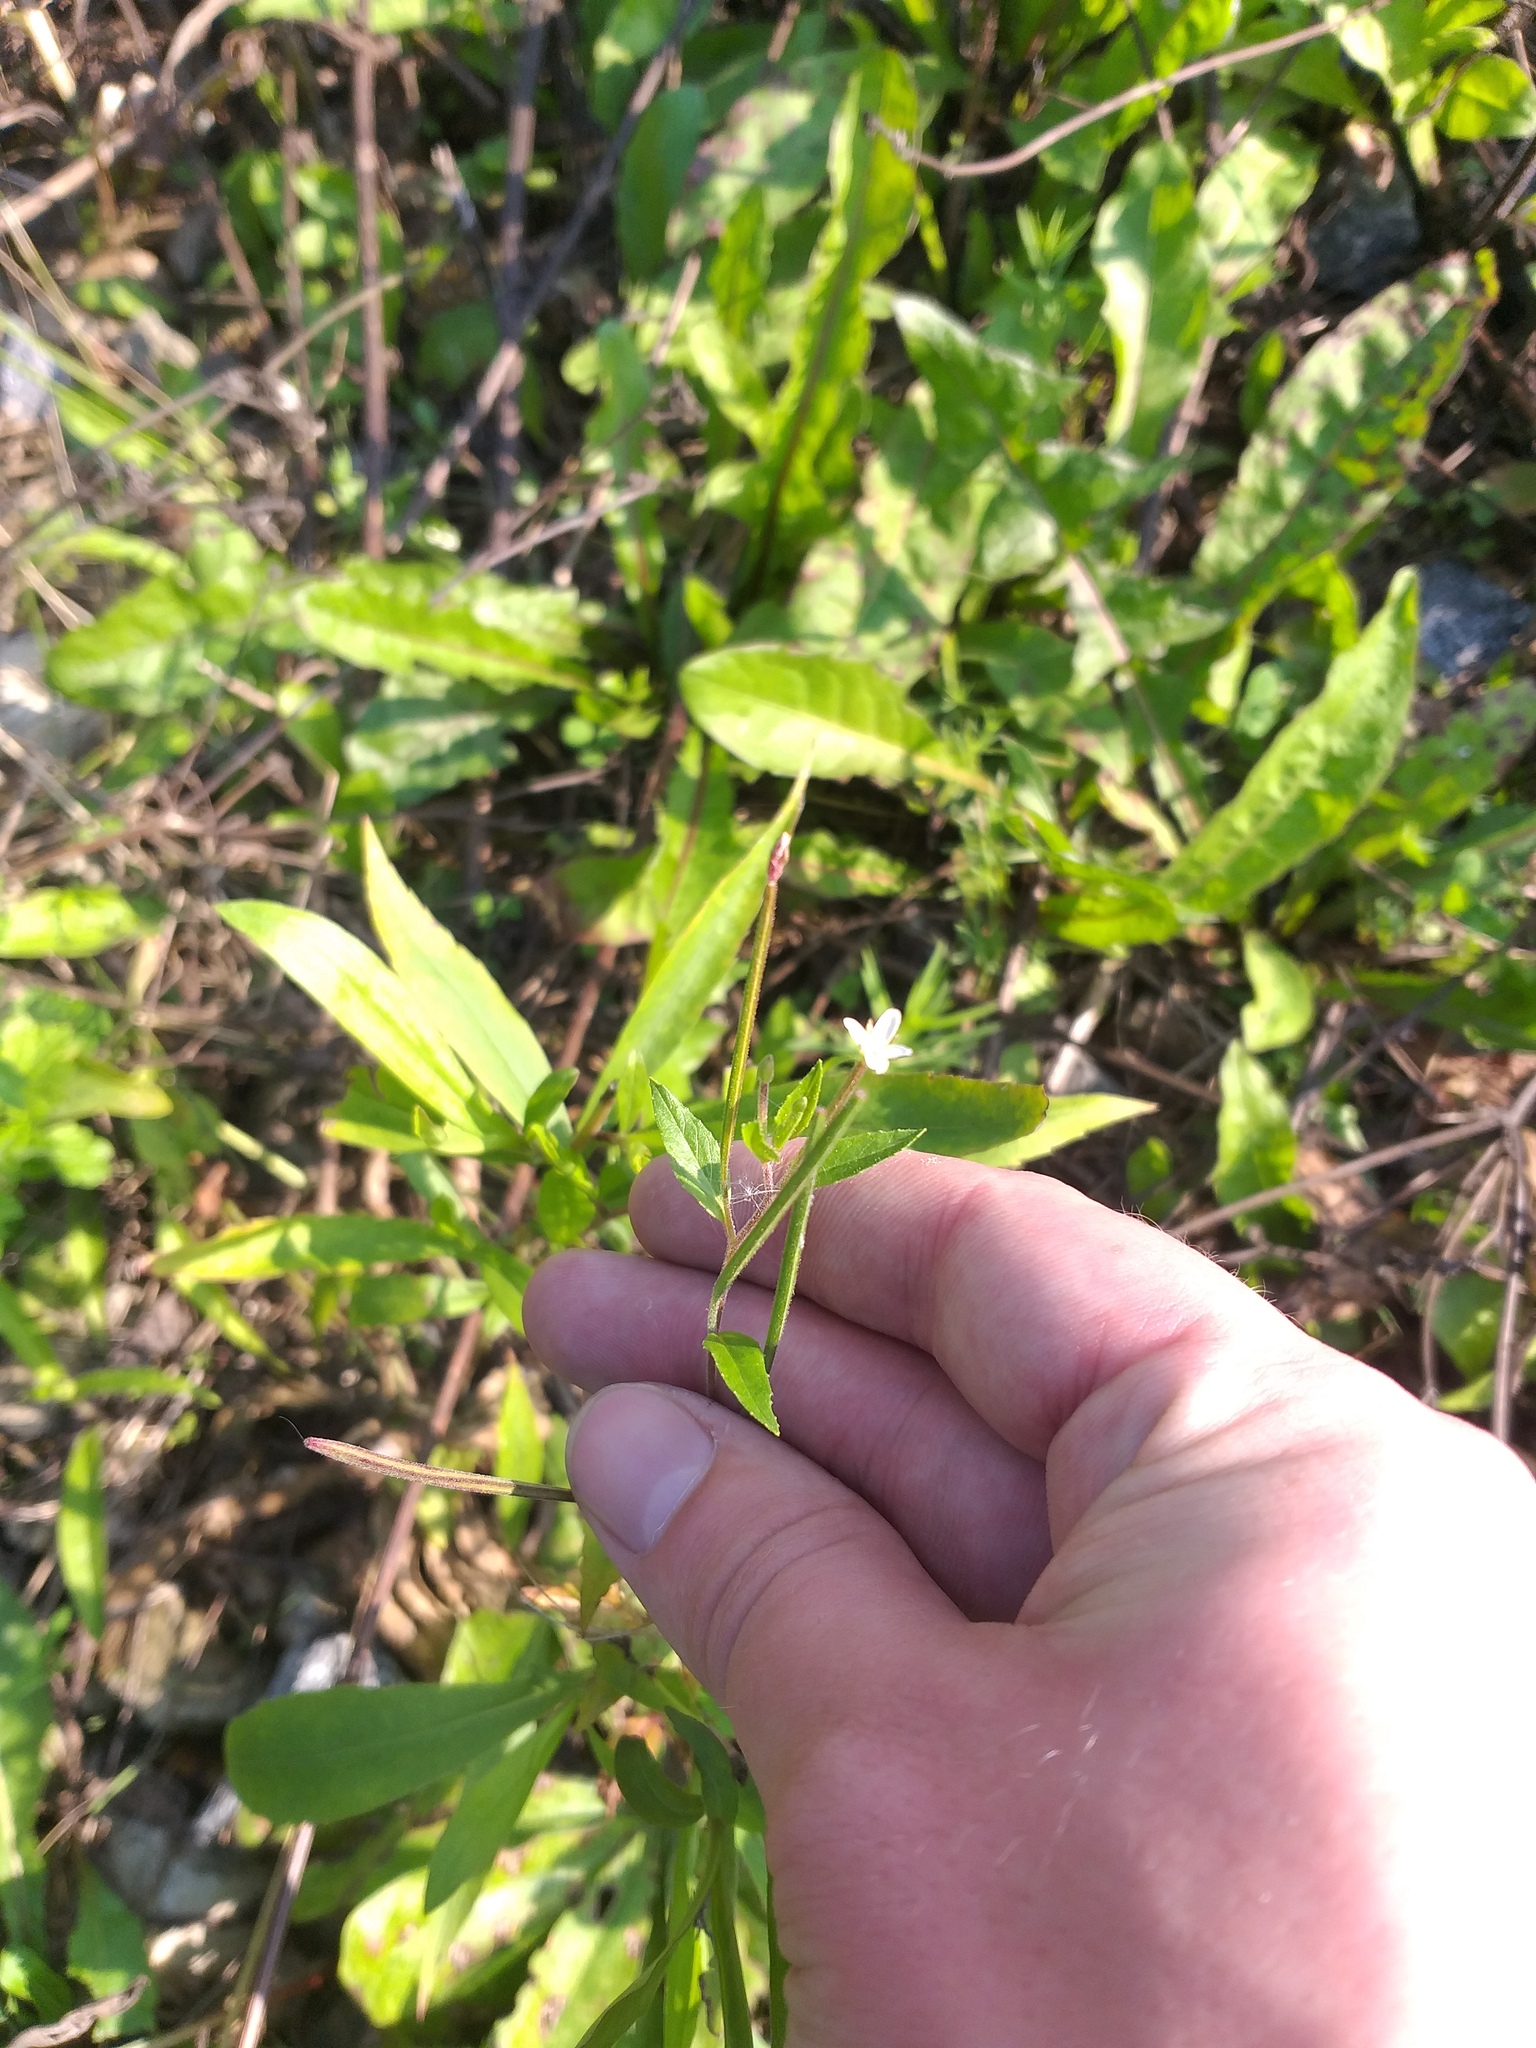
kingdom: Plantae
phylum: Tracheophyta
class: Magnoliopsida
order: Myrtales
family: Onagraceae
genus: Epilobium
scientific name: Epilobium pseudorubescens
